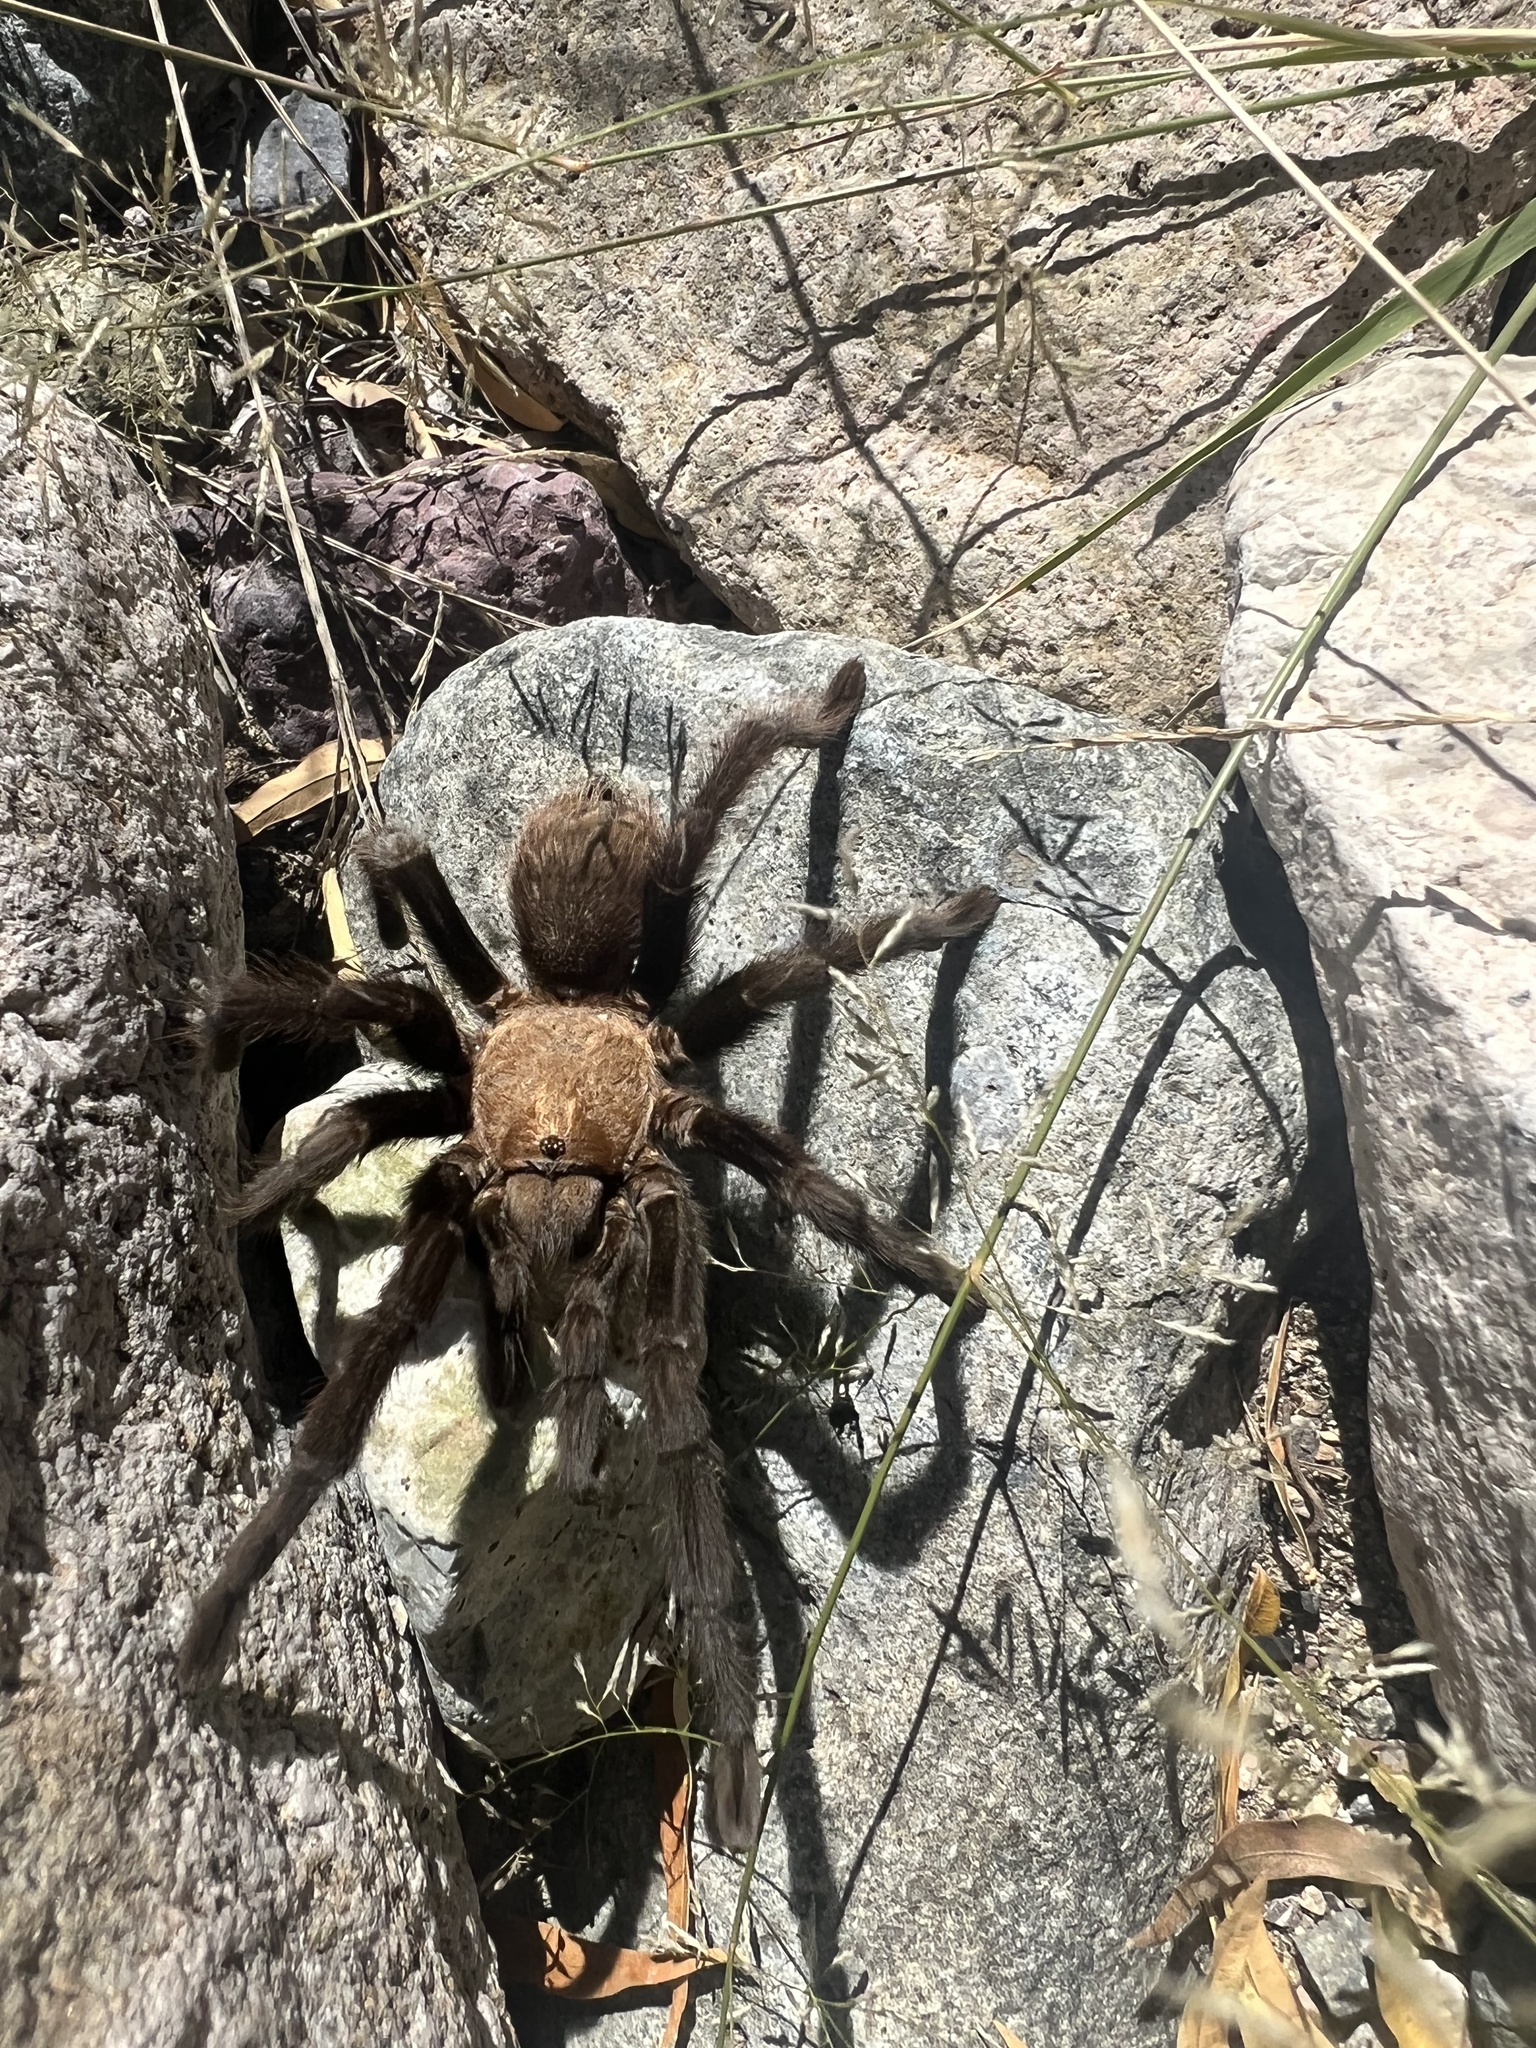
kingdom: Animalia
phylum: Arthropoda
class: Arachnida
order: Araneae
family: Theraphosidae
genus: Aphonopelma
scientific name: Aphonopelma hentzi
